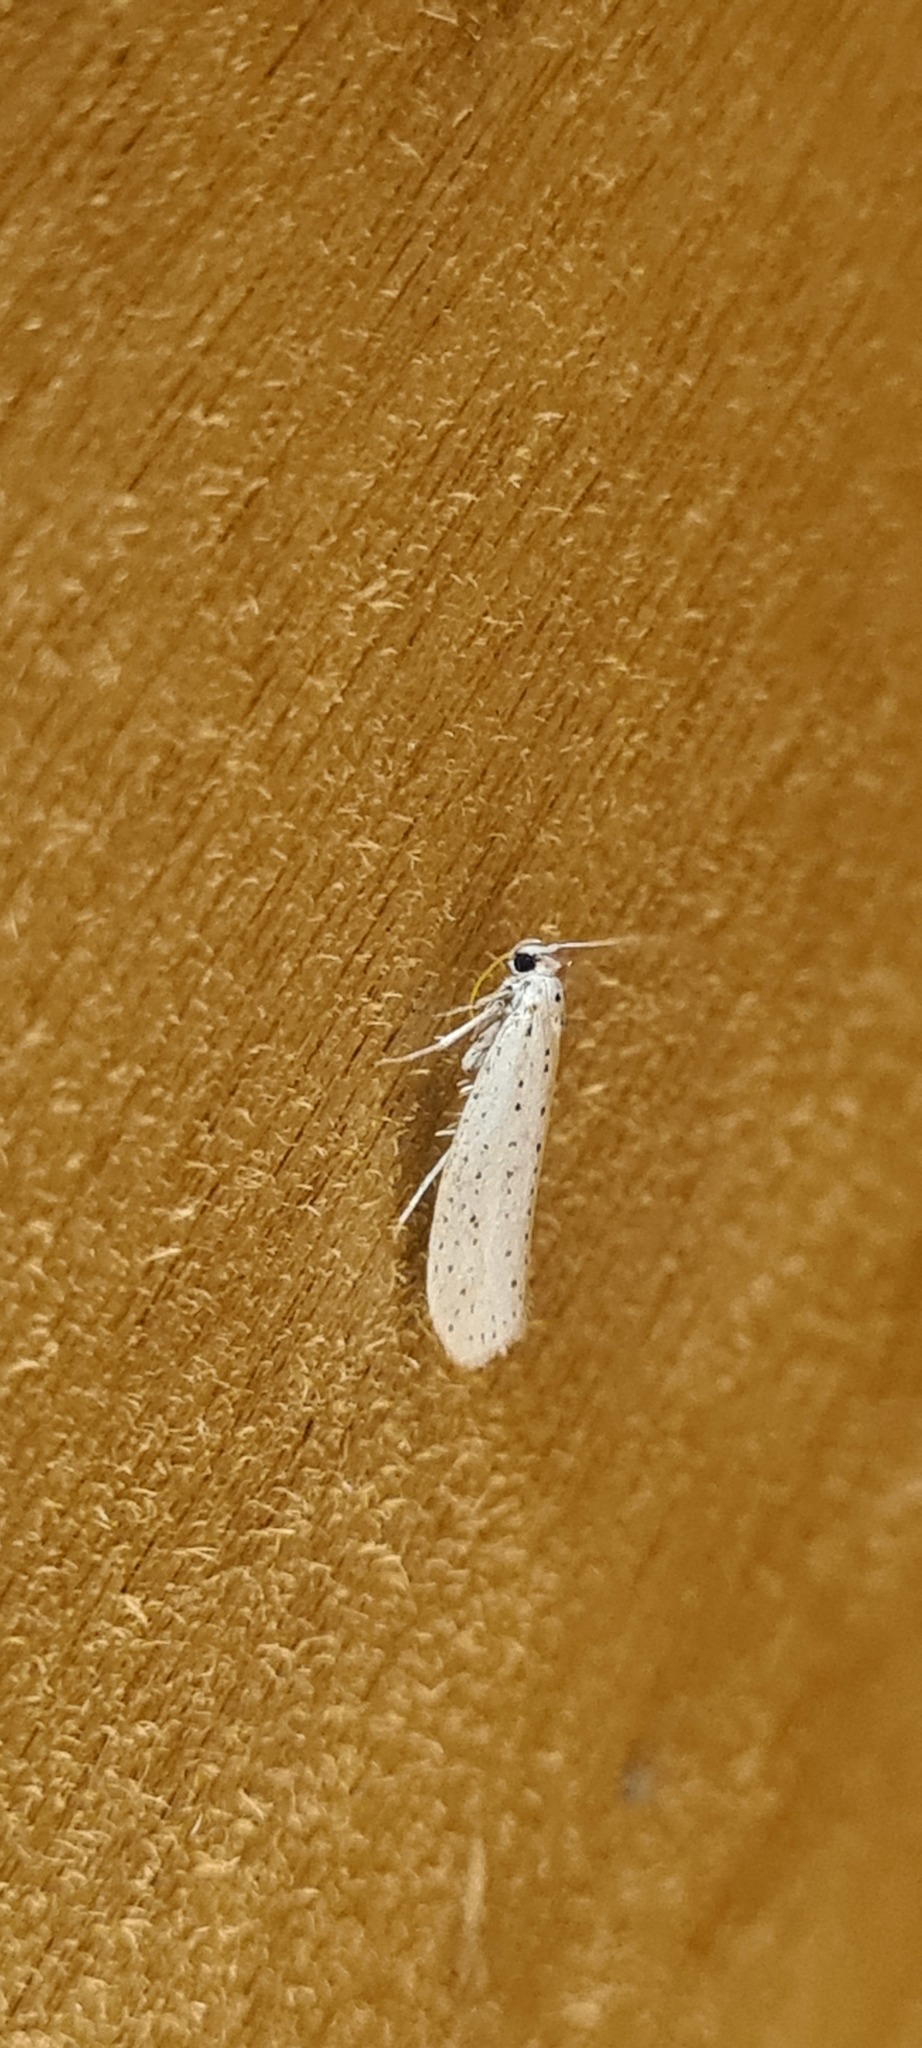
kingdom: Animalia
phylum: Arthropoda
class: Insecta
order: Lepidoptera
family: Yponomeutidae
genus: Yponomeuta
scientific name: Yponomeuta evonymella
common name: Bird-cherry ermine
